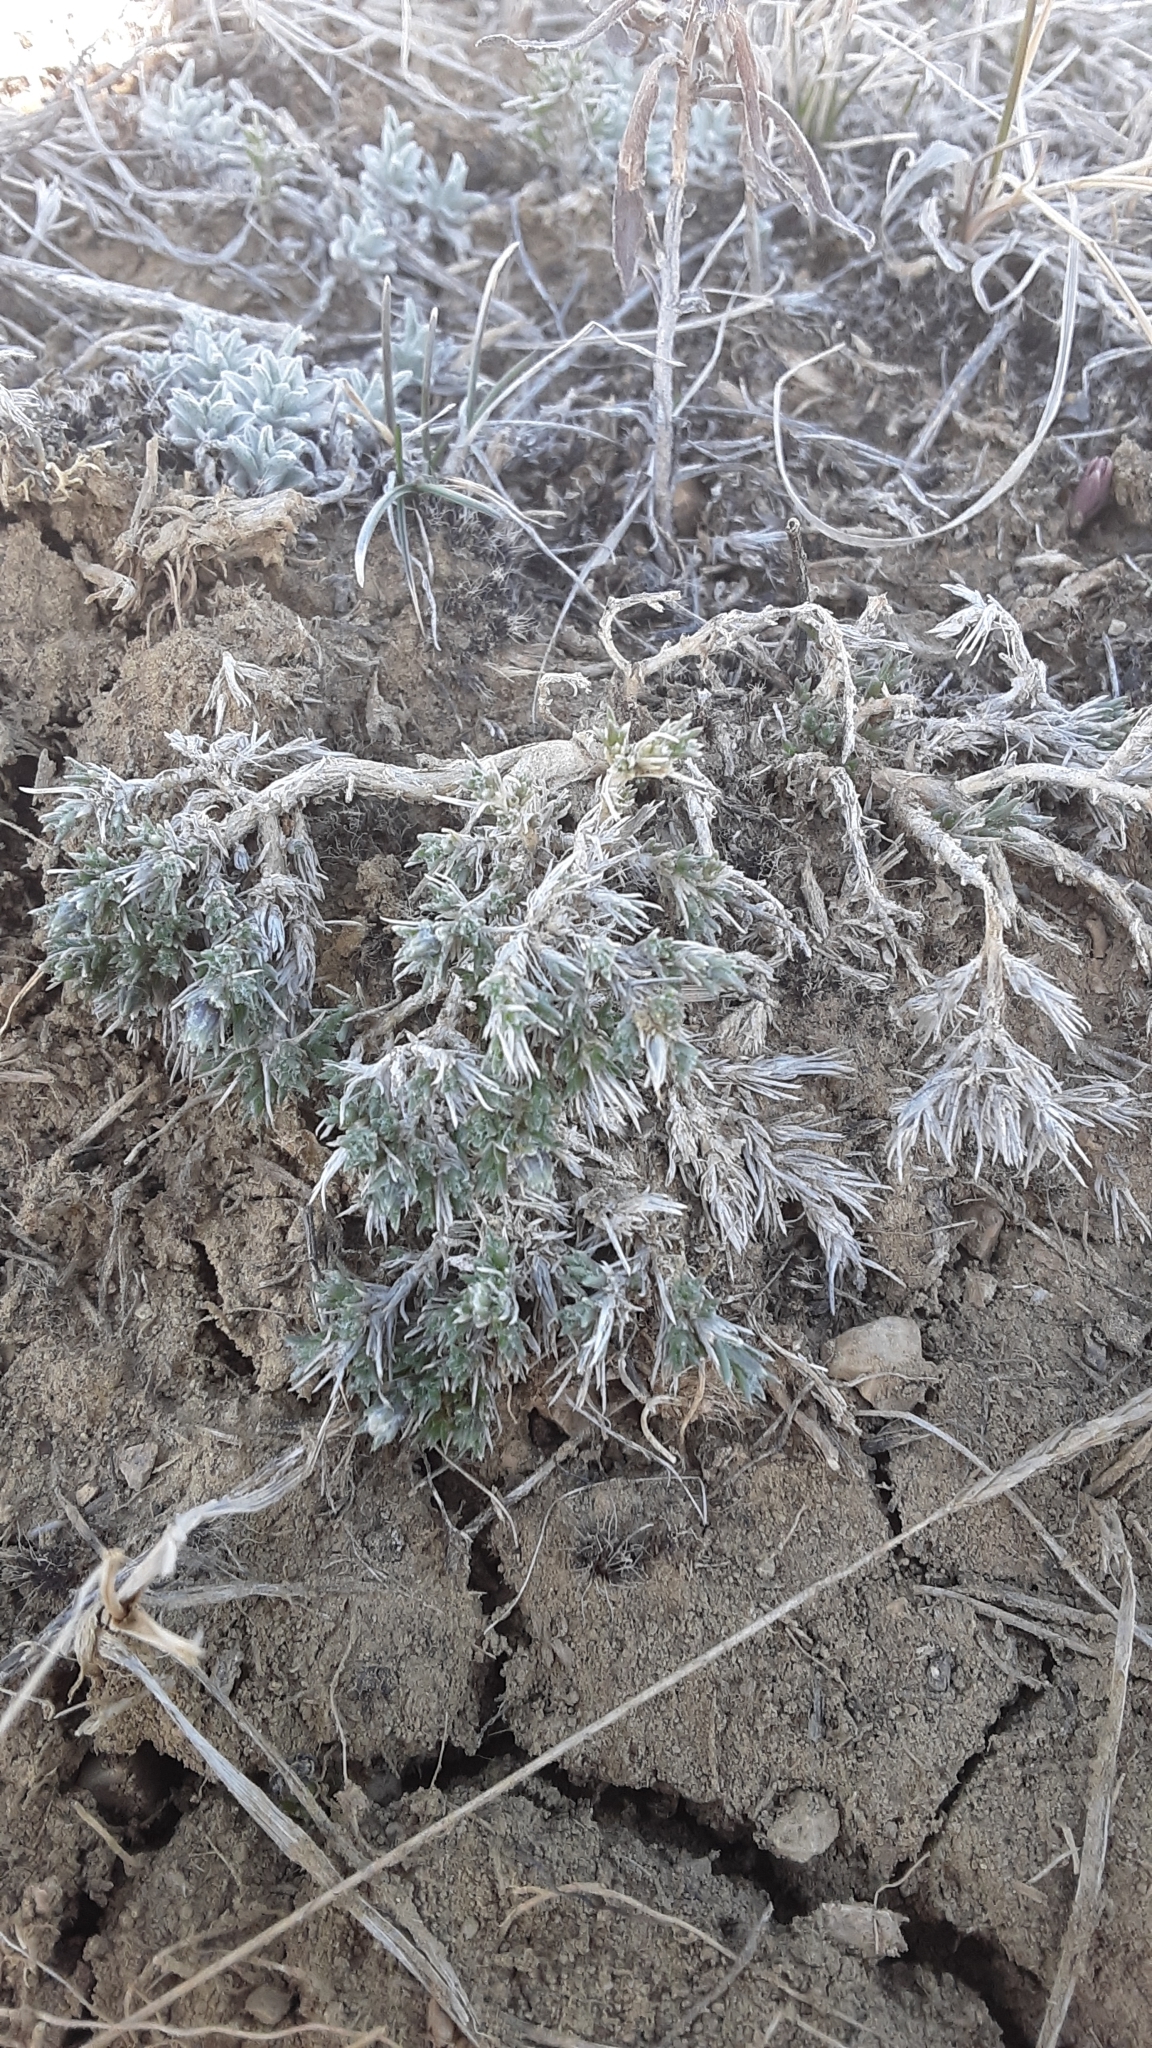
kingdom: Plantae
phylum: Tracheophyta
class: Magnoliopsida
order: Ericales
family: Polemoniaceae
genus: Phlox
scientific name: Phlox hoodii
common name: Moss phlox
